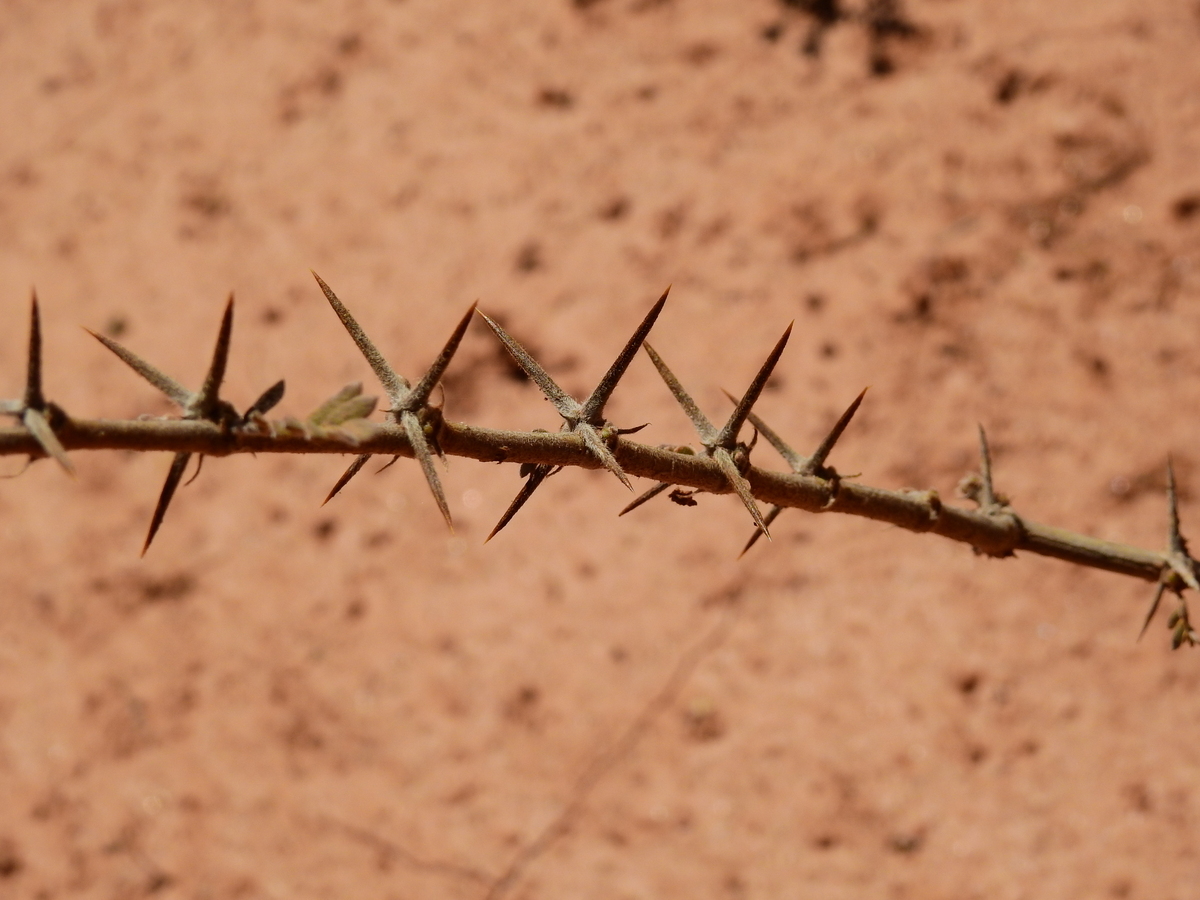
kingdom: Plantae
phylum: Tracheophyta
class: Magnoliopsida
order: Zygophyllales
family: Zygophyllaceae
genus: Plectrocarpa
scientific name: Plectrocarpa tetracantha
